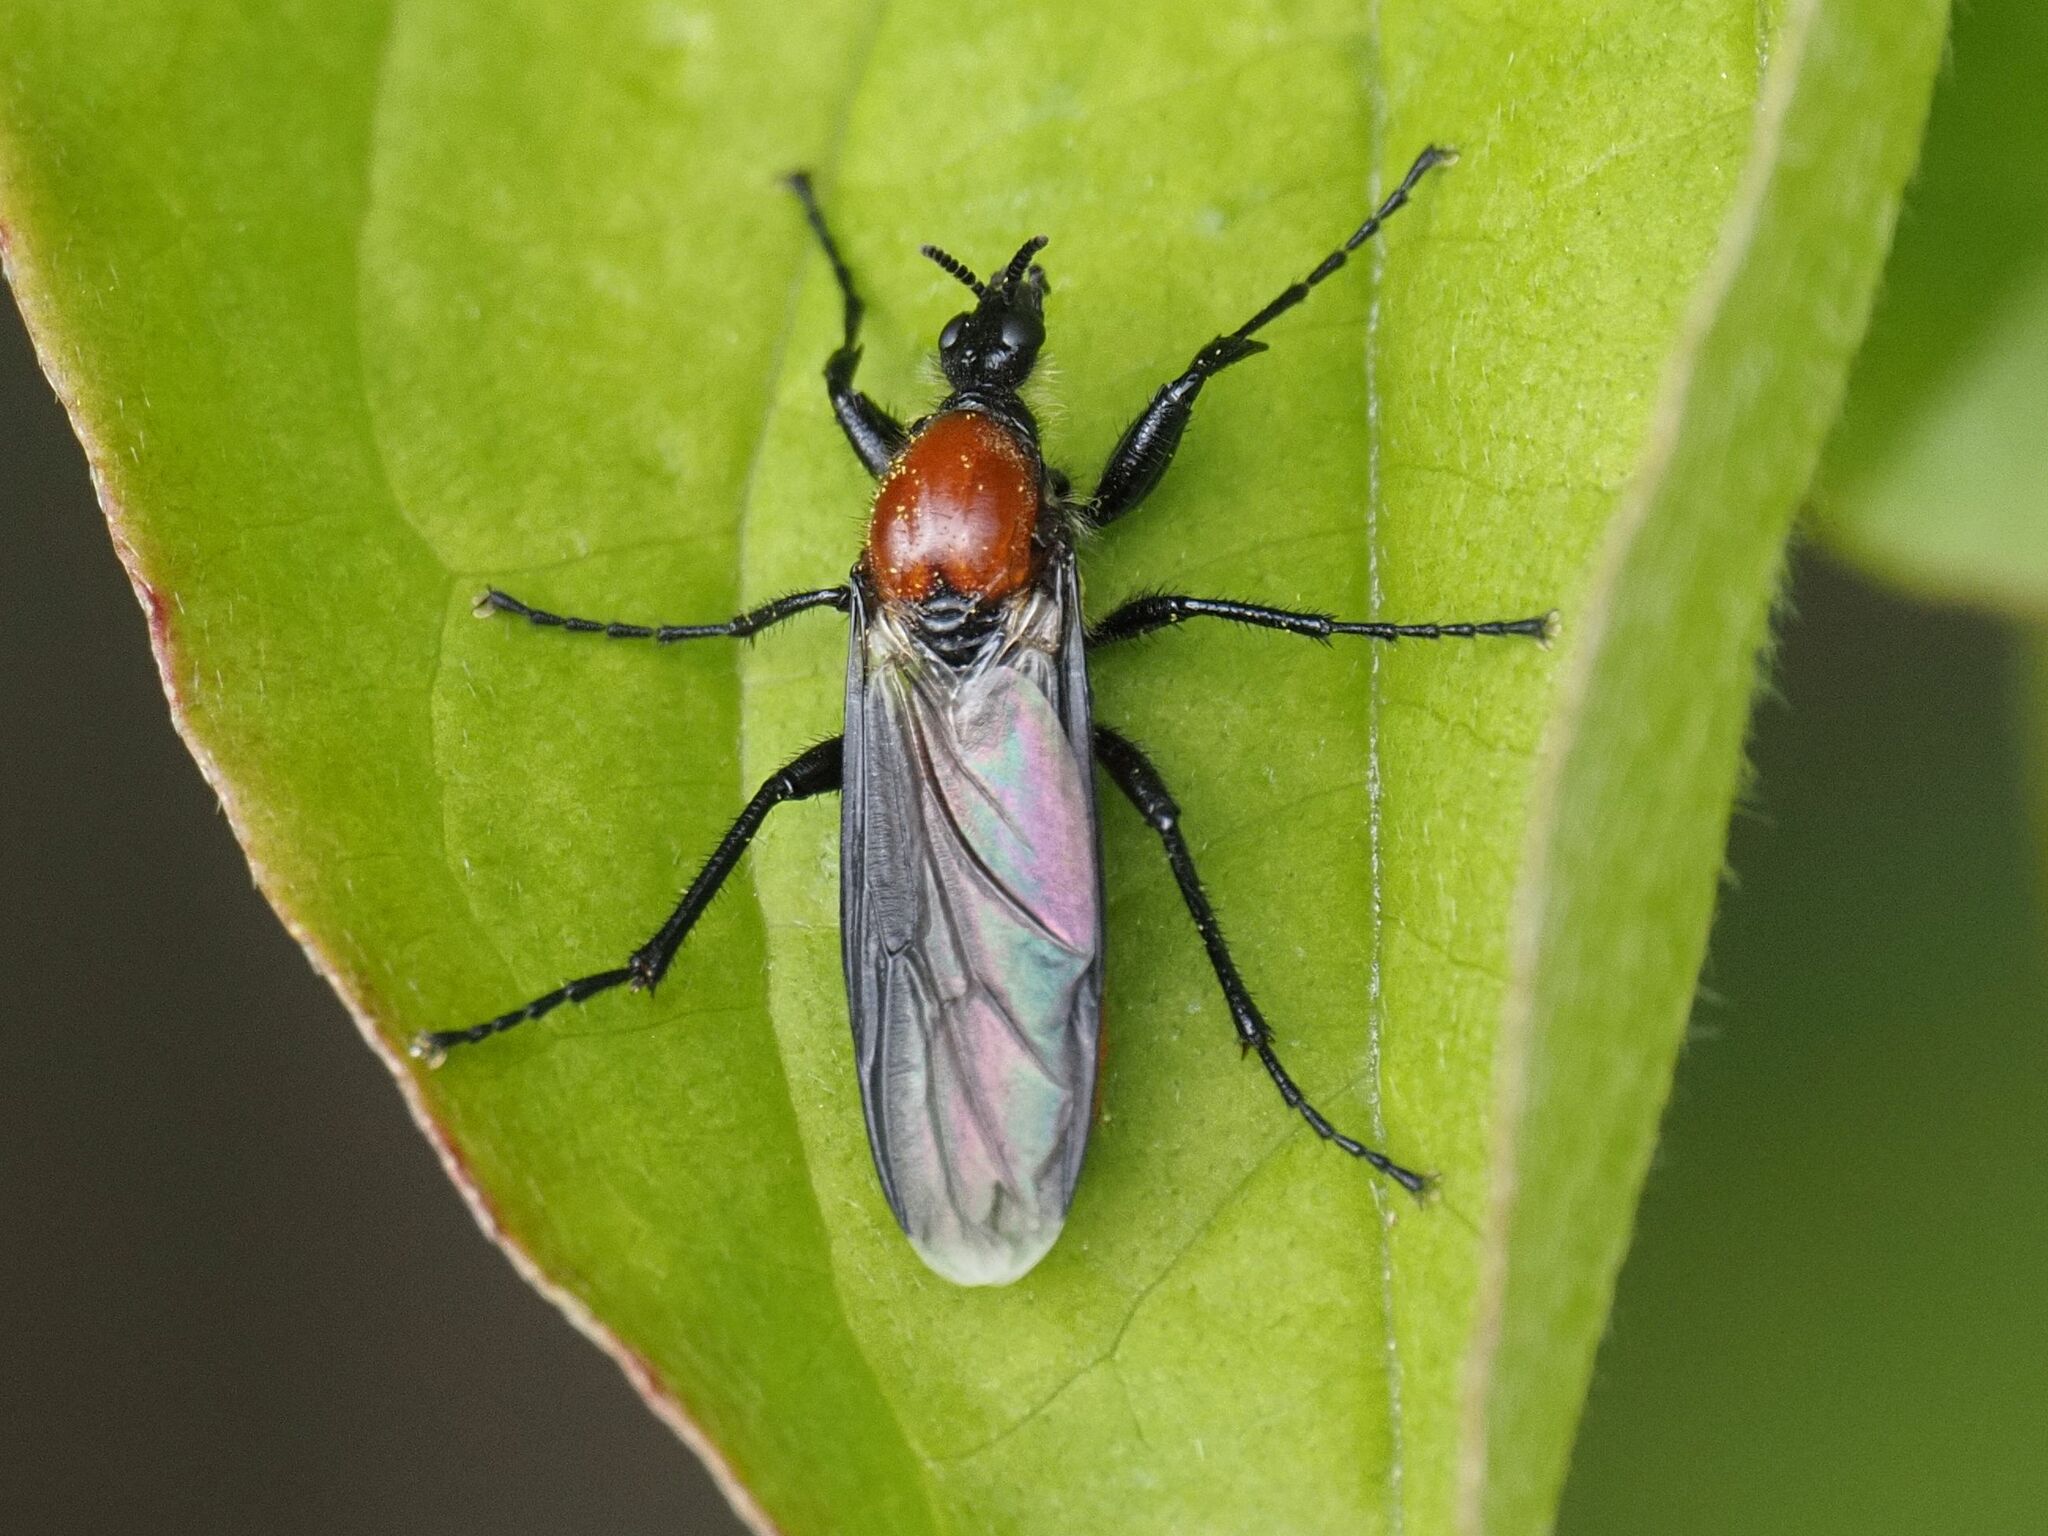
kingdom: Animalia
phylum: Arthropoda
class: Insecta
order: Diptera
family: Bibionidae
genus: Bibio
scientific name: Bibio hortulanus
